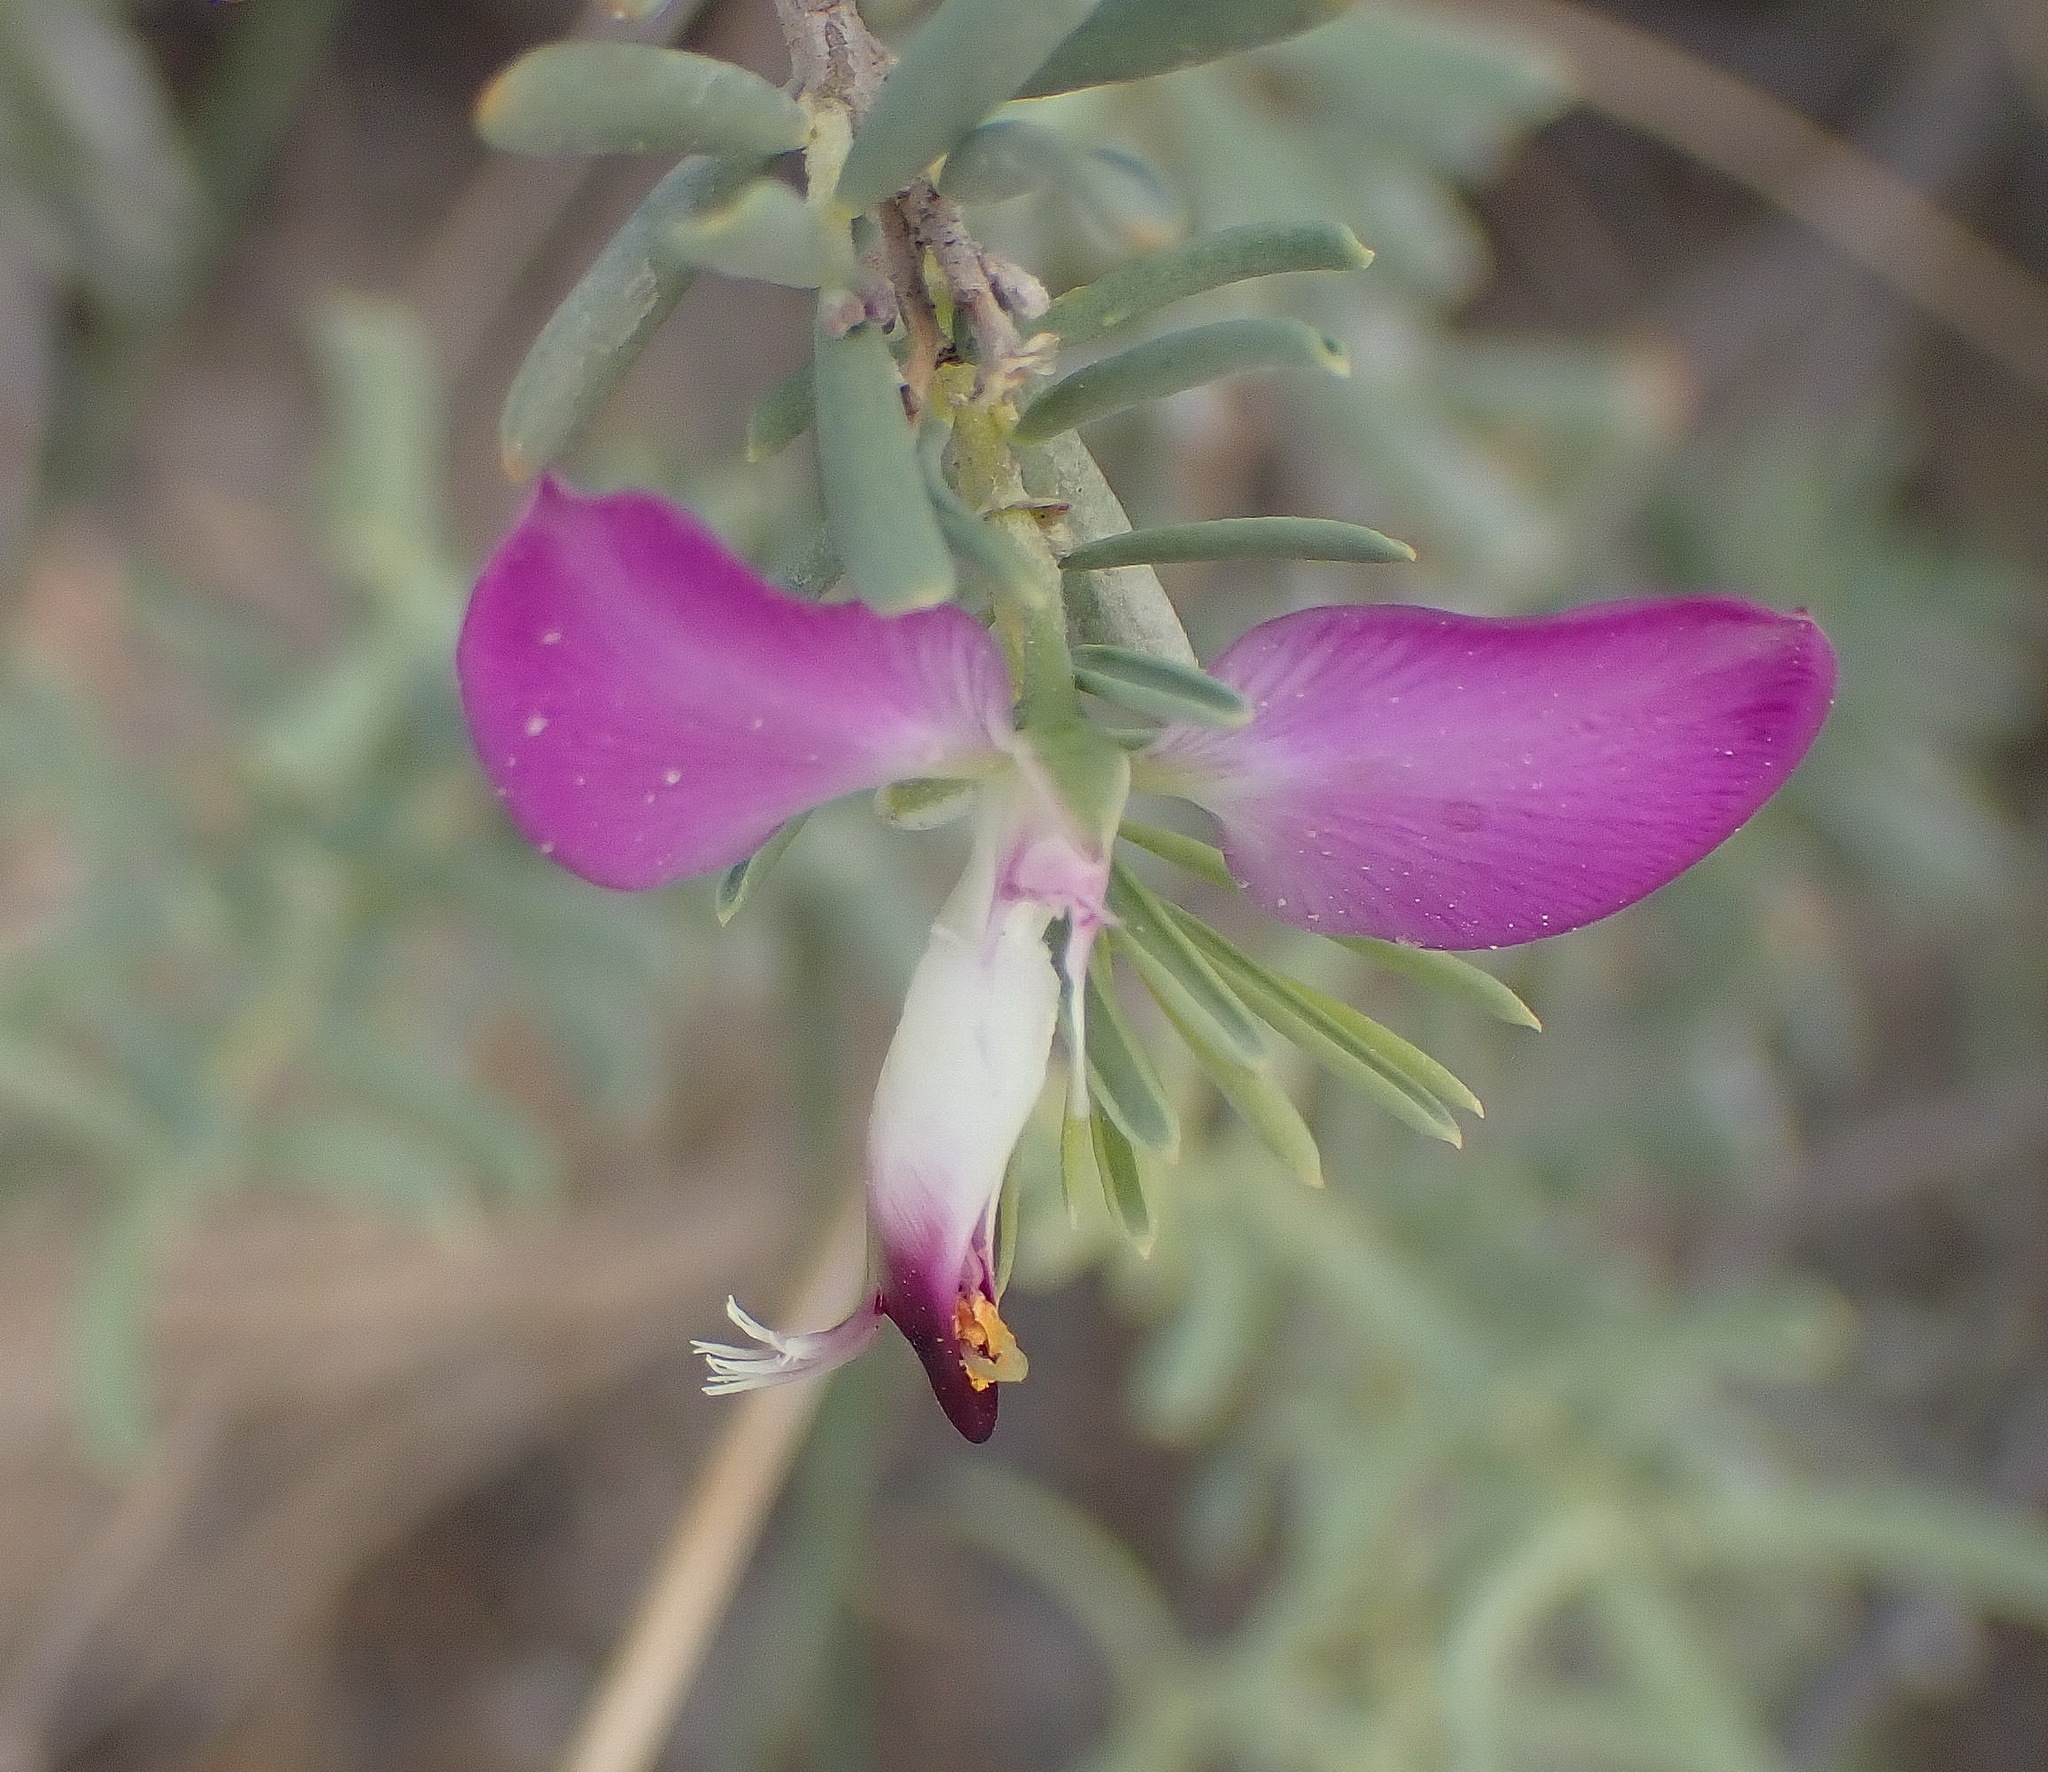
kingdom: Plantae
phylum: Tracheophyta
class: Magnoliopsida
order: Fabales
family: Polygalaceae
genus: Polygala
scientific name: Polygala myrtifolia
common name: Myrtle-leaf milkwort
